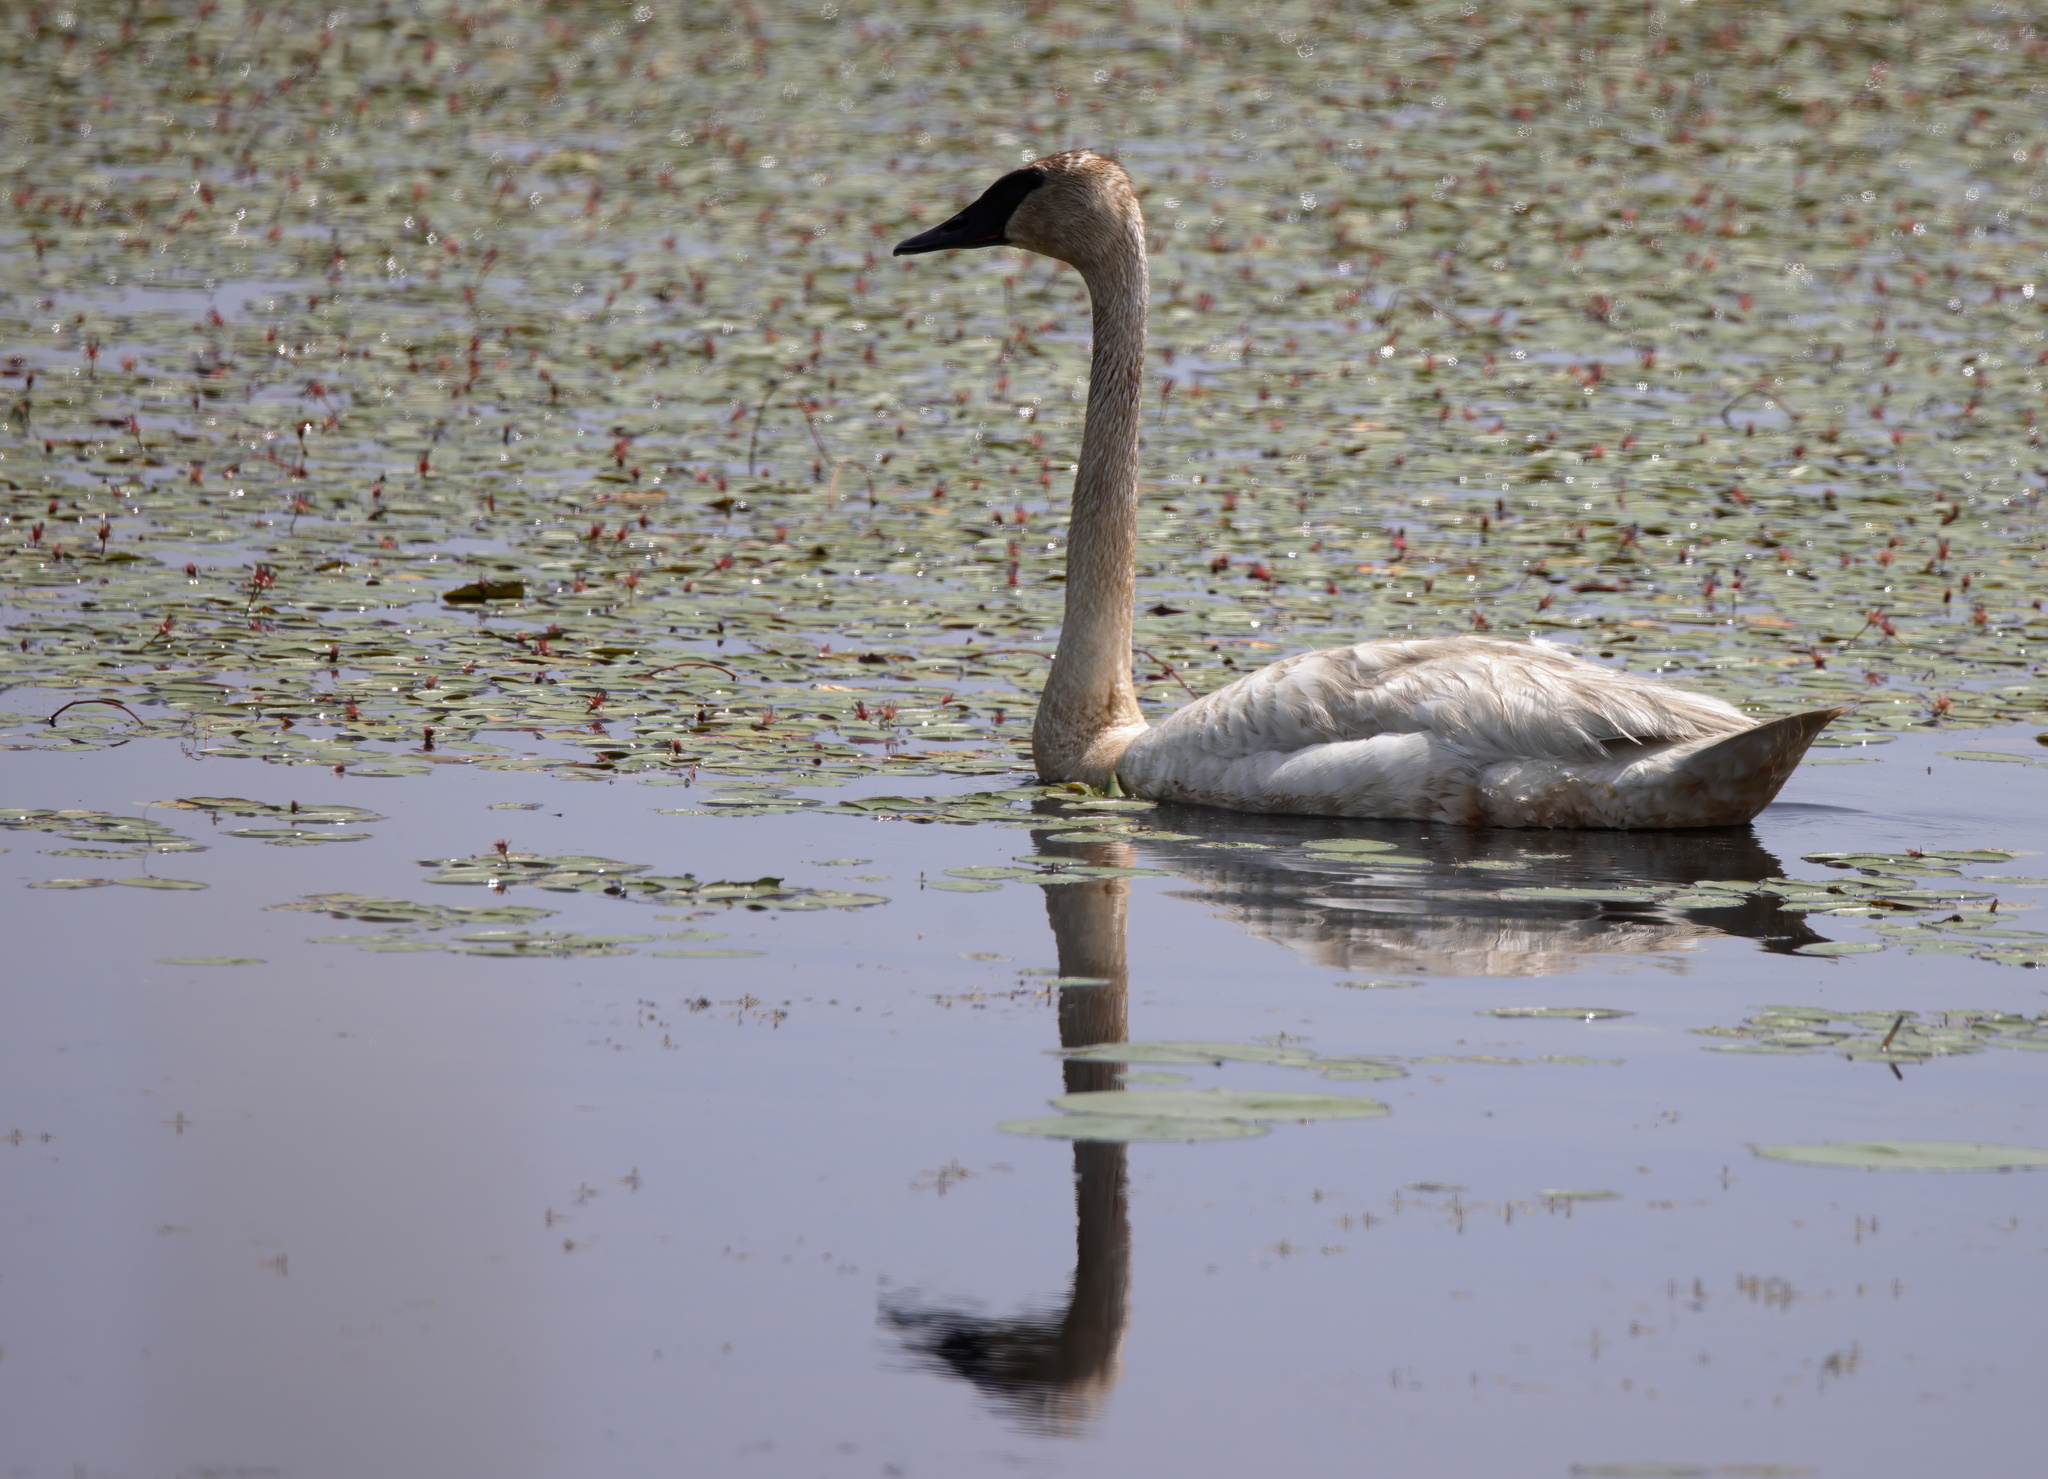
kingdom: Animalia
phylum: Chordata
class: Aves
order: Anseriformes
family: Anatidae
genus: Cygnus
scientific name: Cygnus buccinator
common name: Trumpeter swan
